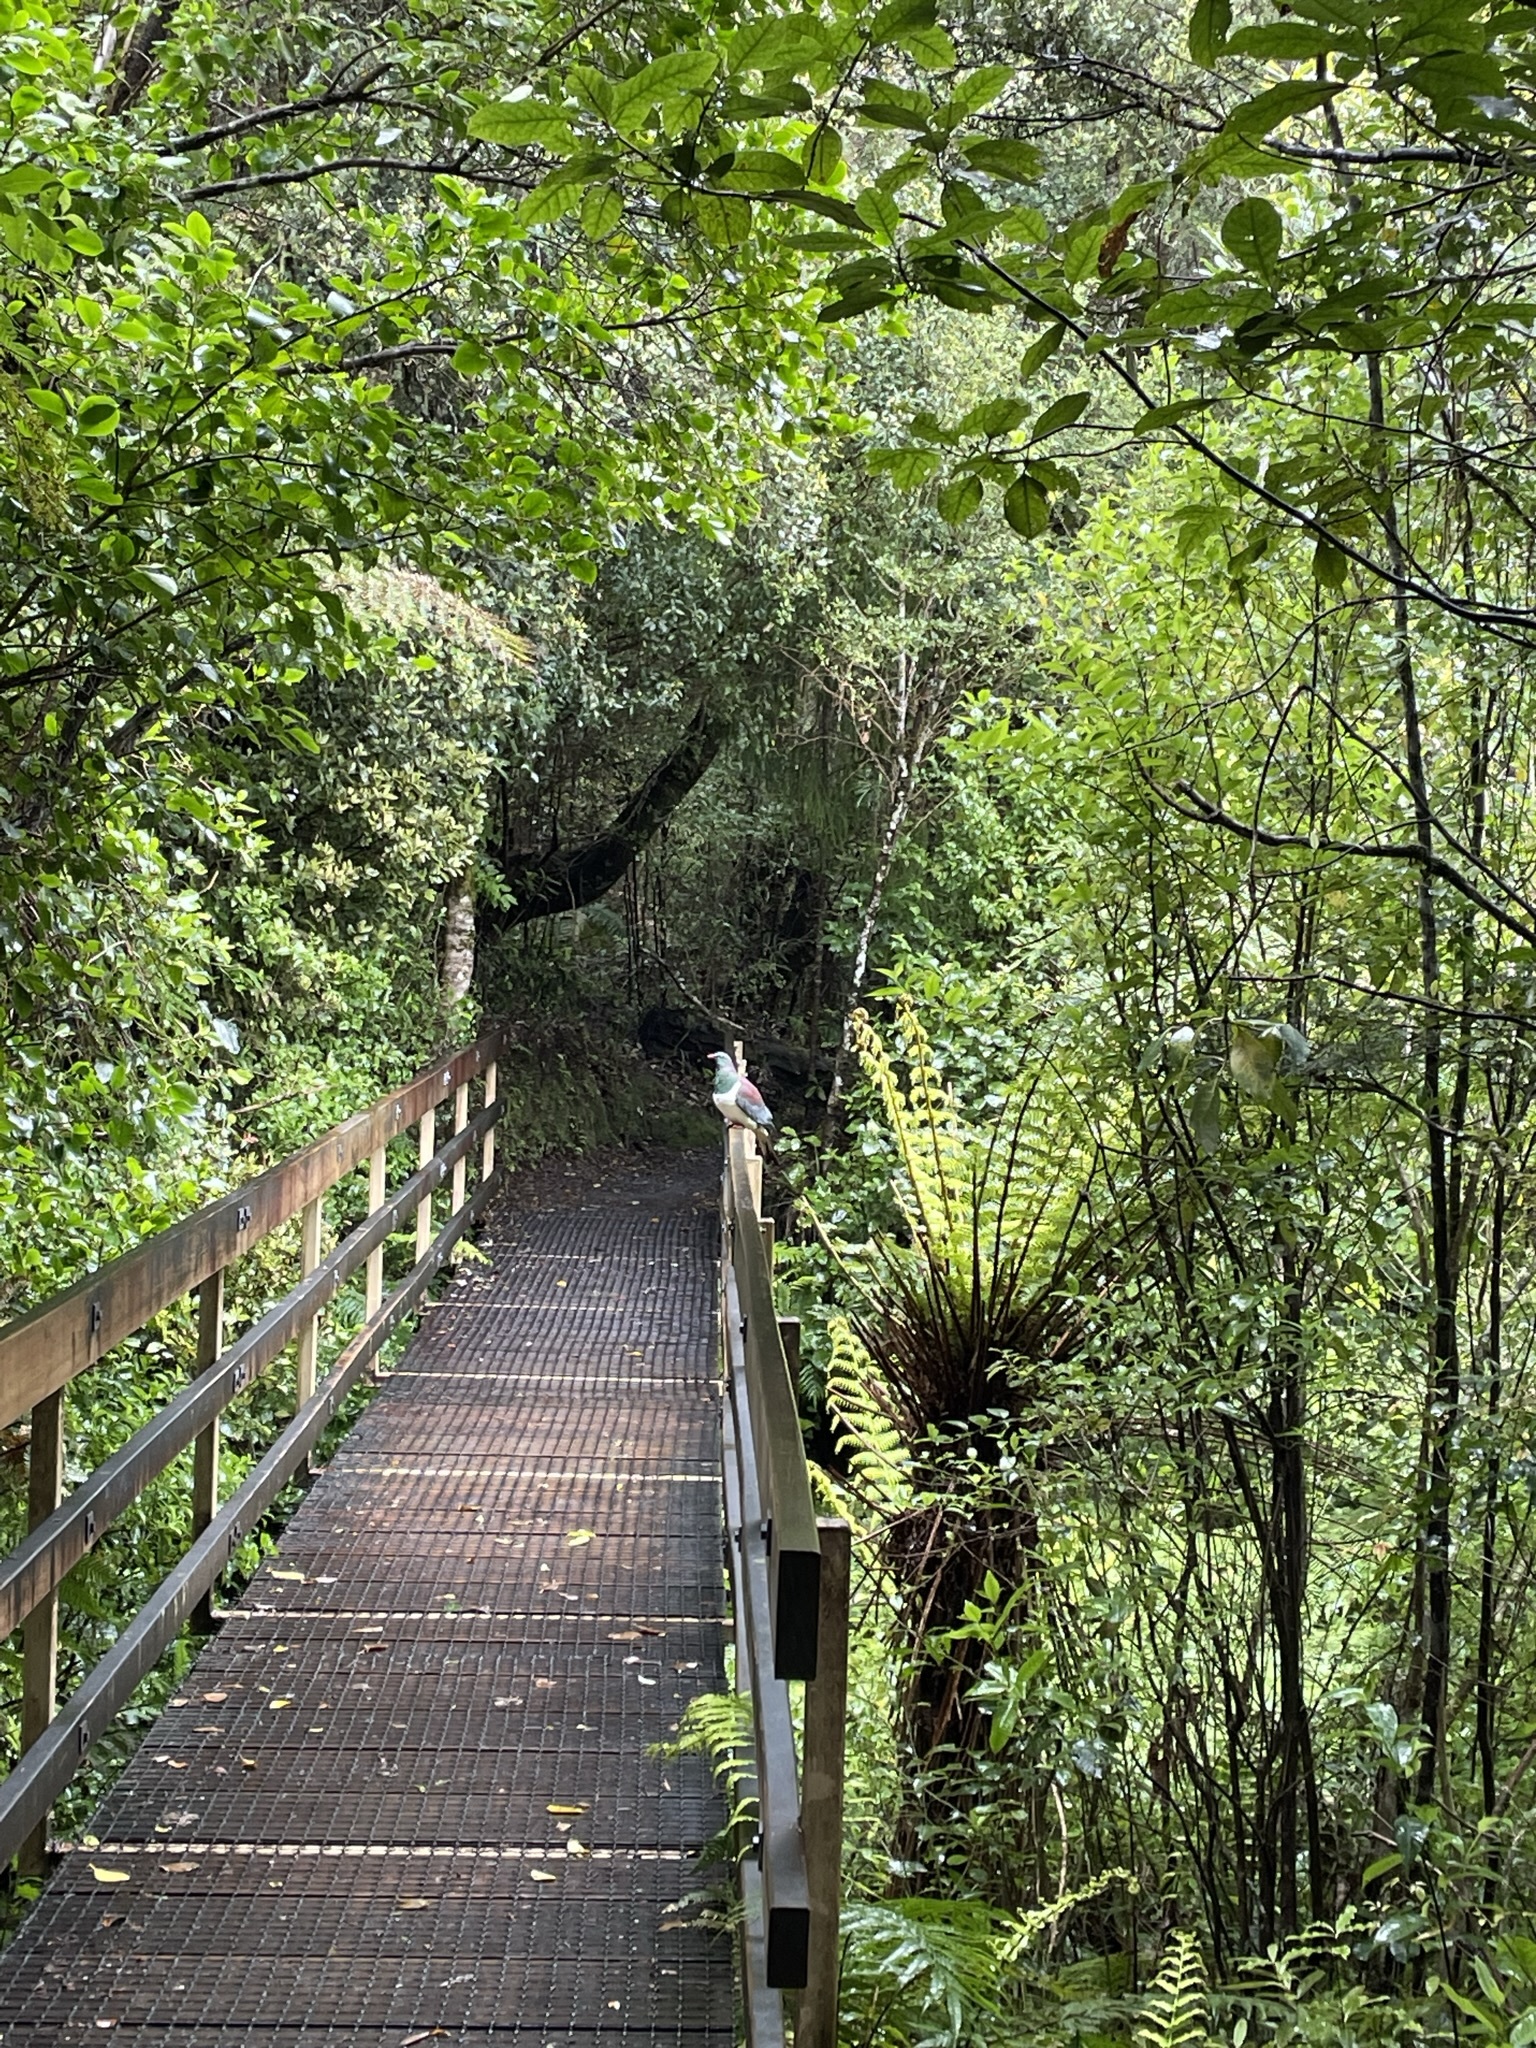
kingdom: Animalia
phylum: Chordata
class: Aves
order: Columbiformes
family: Columbidae
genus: Hemiphaga
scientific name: Hemiphaga novaeseelandiae
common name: New zealand pigeon
